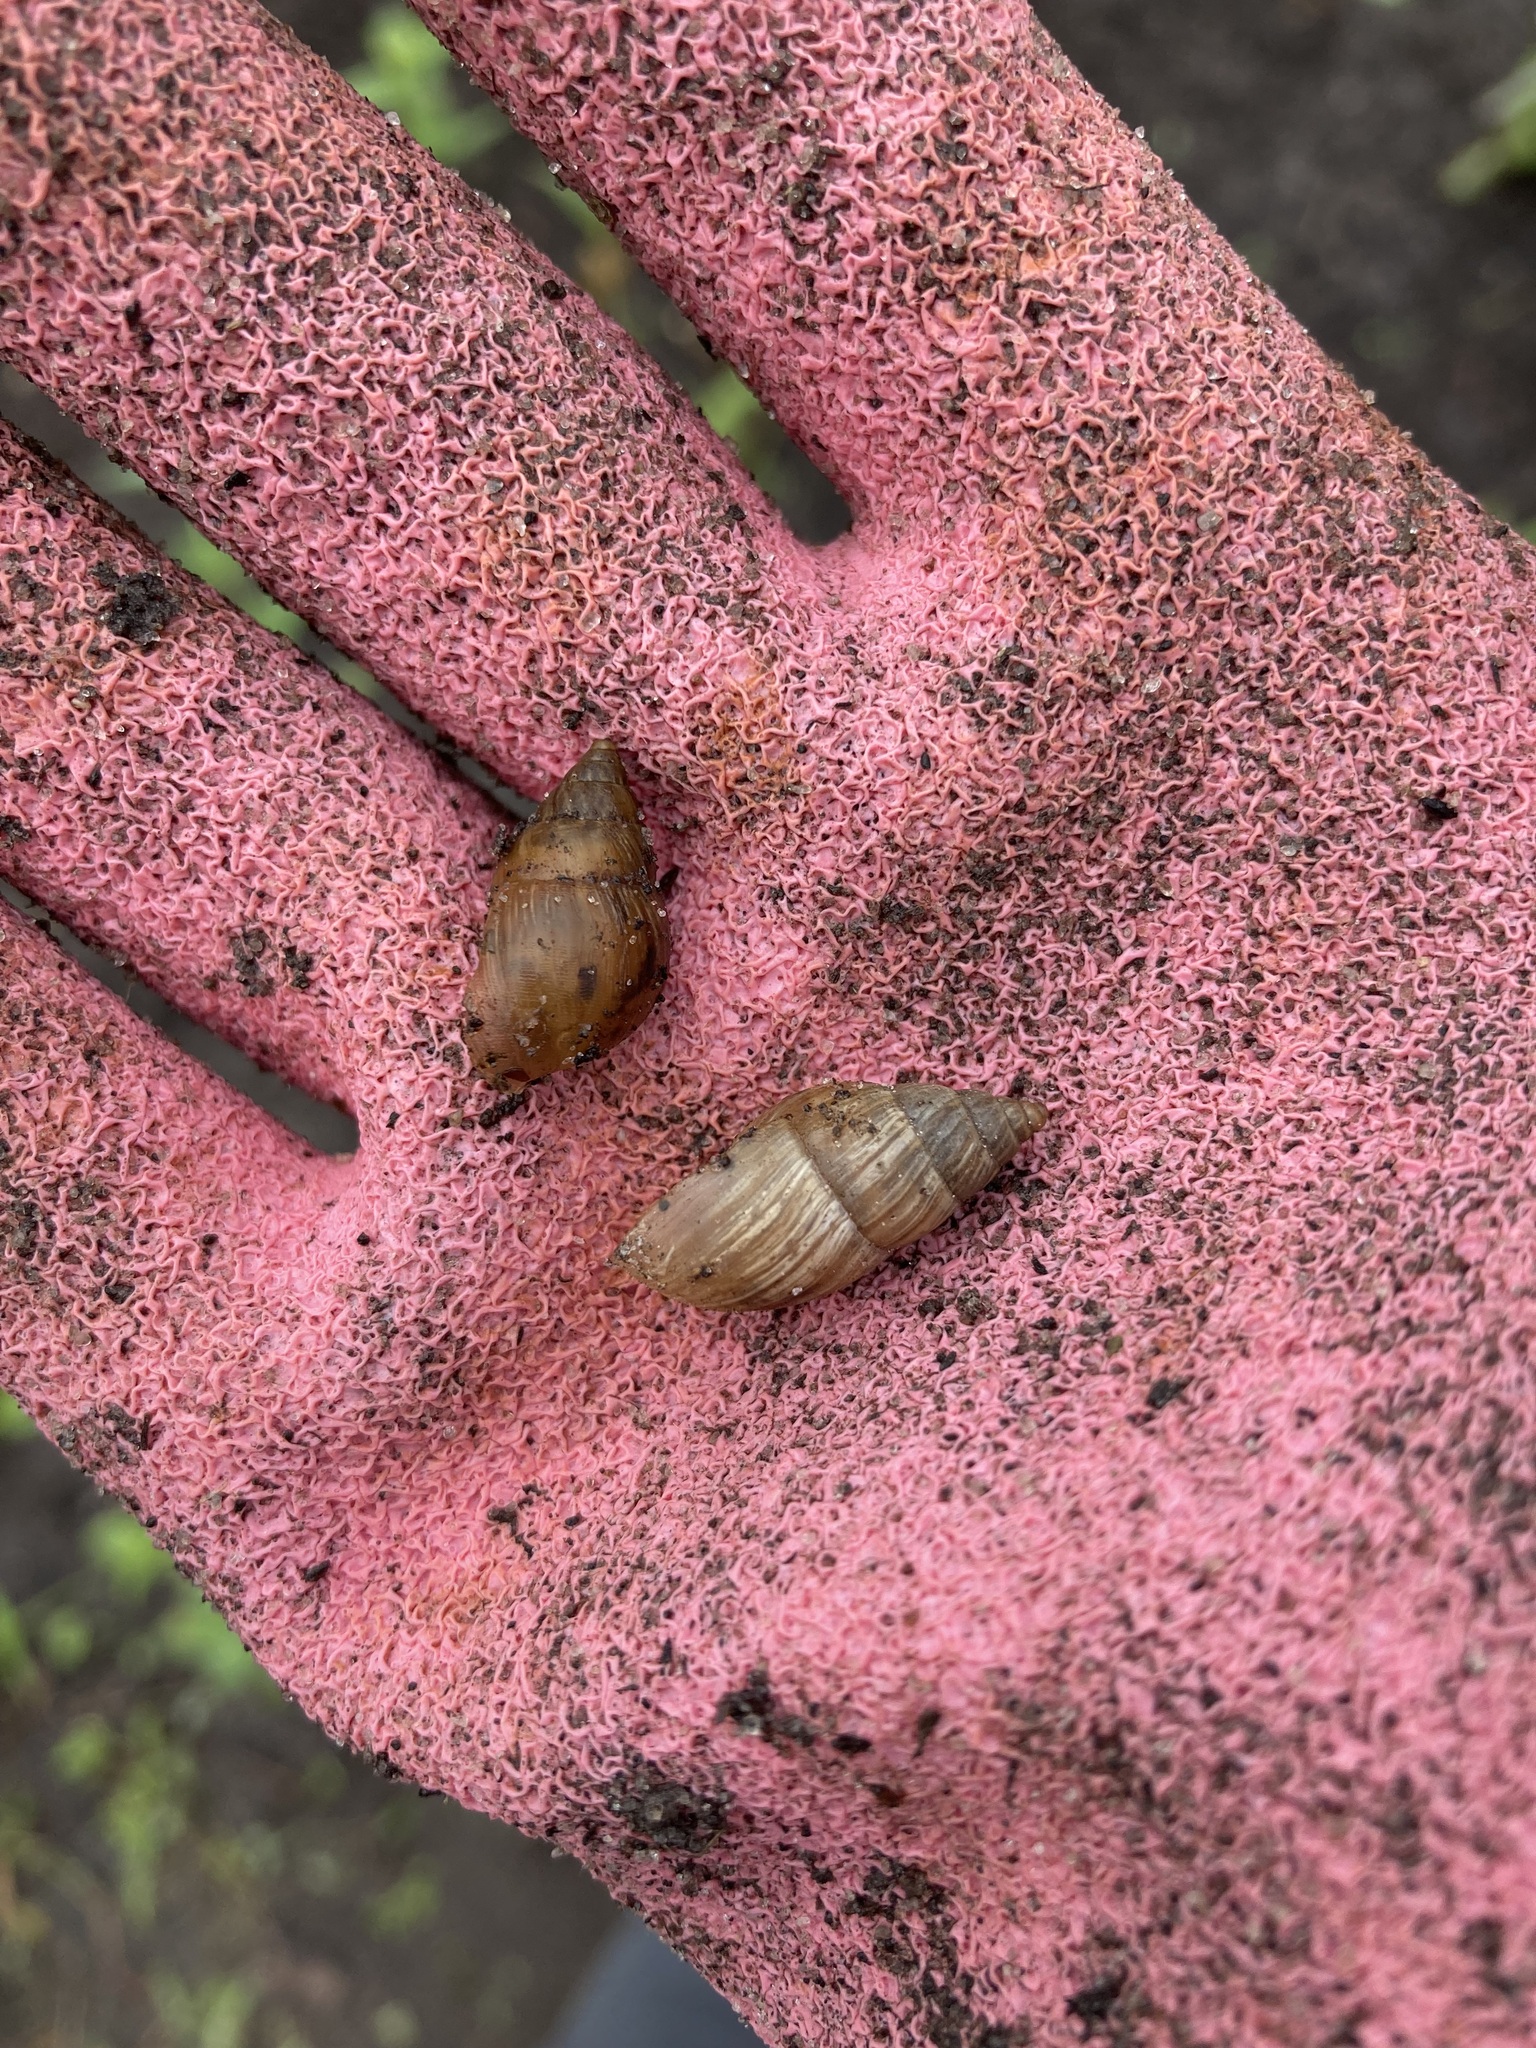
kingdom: Animalia
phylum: Mollusca
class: Gastropoda
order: Stylommatophora
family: Bulimulidae
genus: Bulimulus
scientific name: Bulimulus bonariensis
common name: Snail
